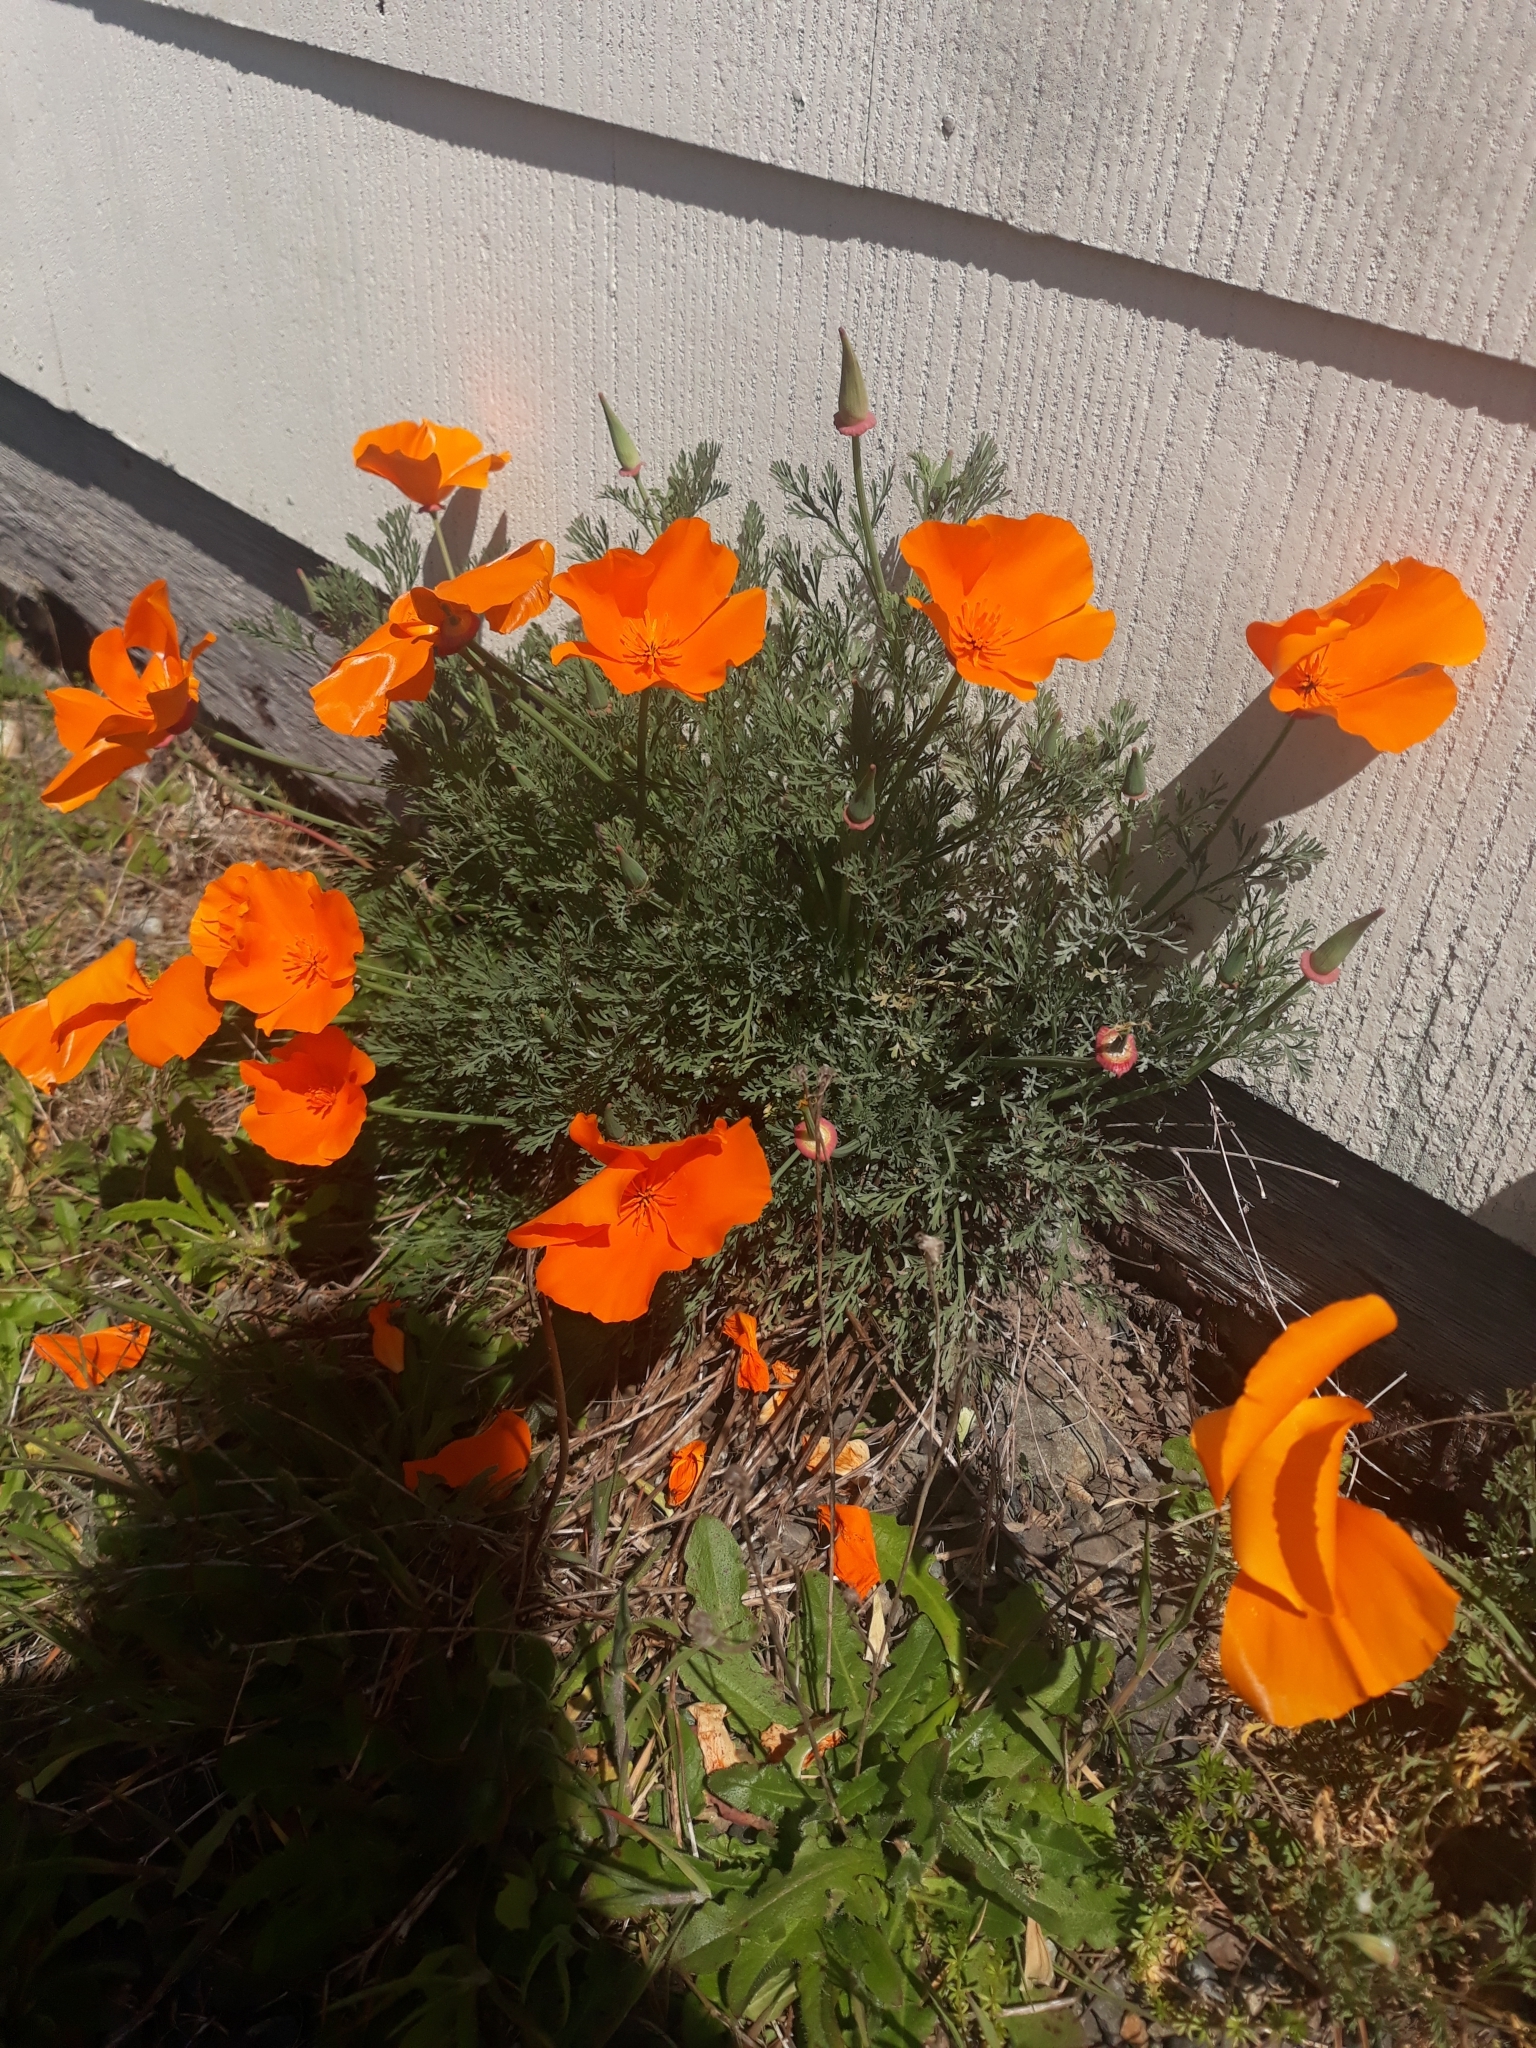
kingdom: Plantae
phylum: Tracheophyta
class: Magnoliopsida
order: Ranunculales
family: Papaveraceae
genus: Eschscholzia
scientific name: Eschscholzia californica
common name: California poppy
